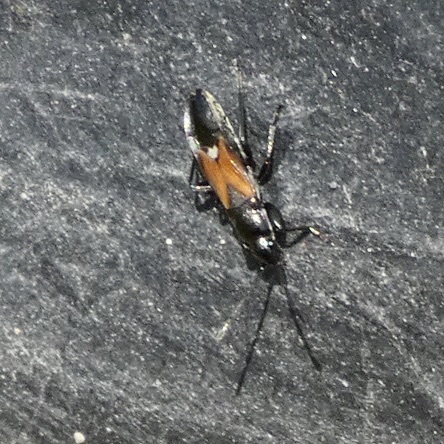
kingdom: Animalia
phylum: Arthropoda
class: Insecta
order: Hemiptera
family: Rhyparochromidae
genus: Pterotmetus
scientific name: Pterotmetus staphyliniformis
